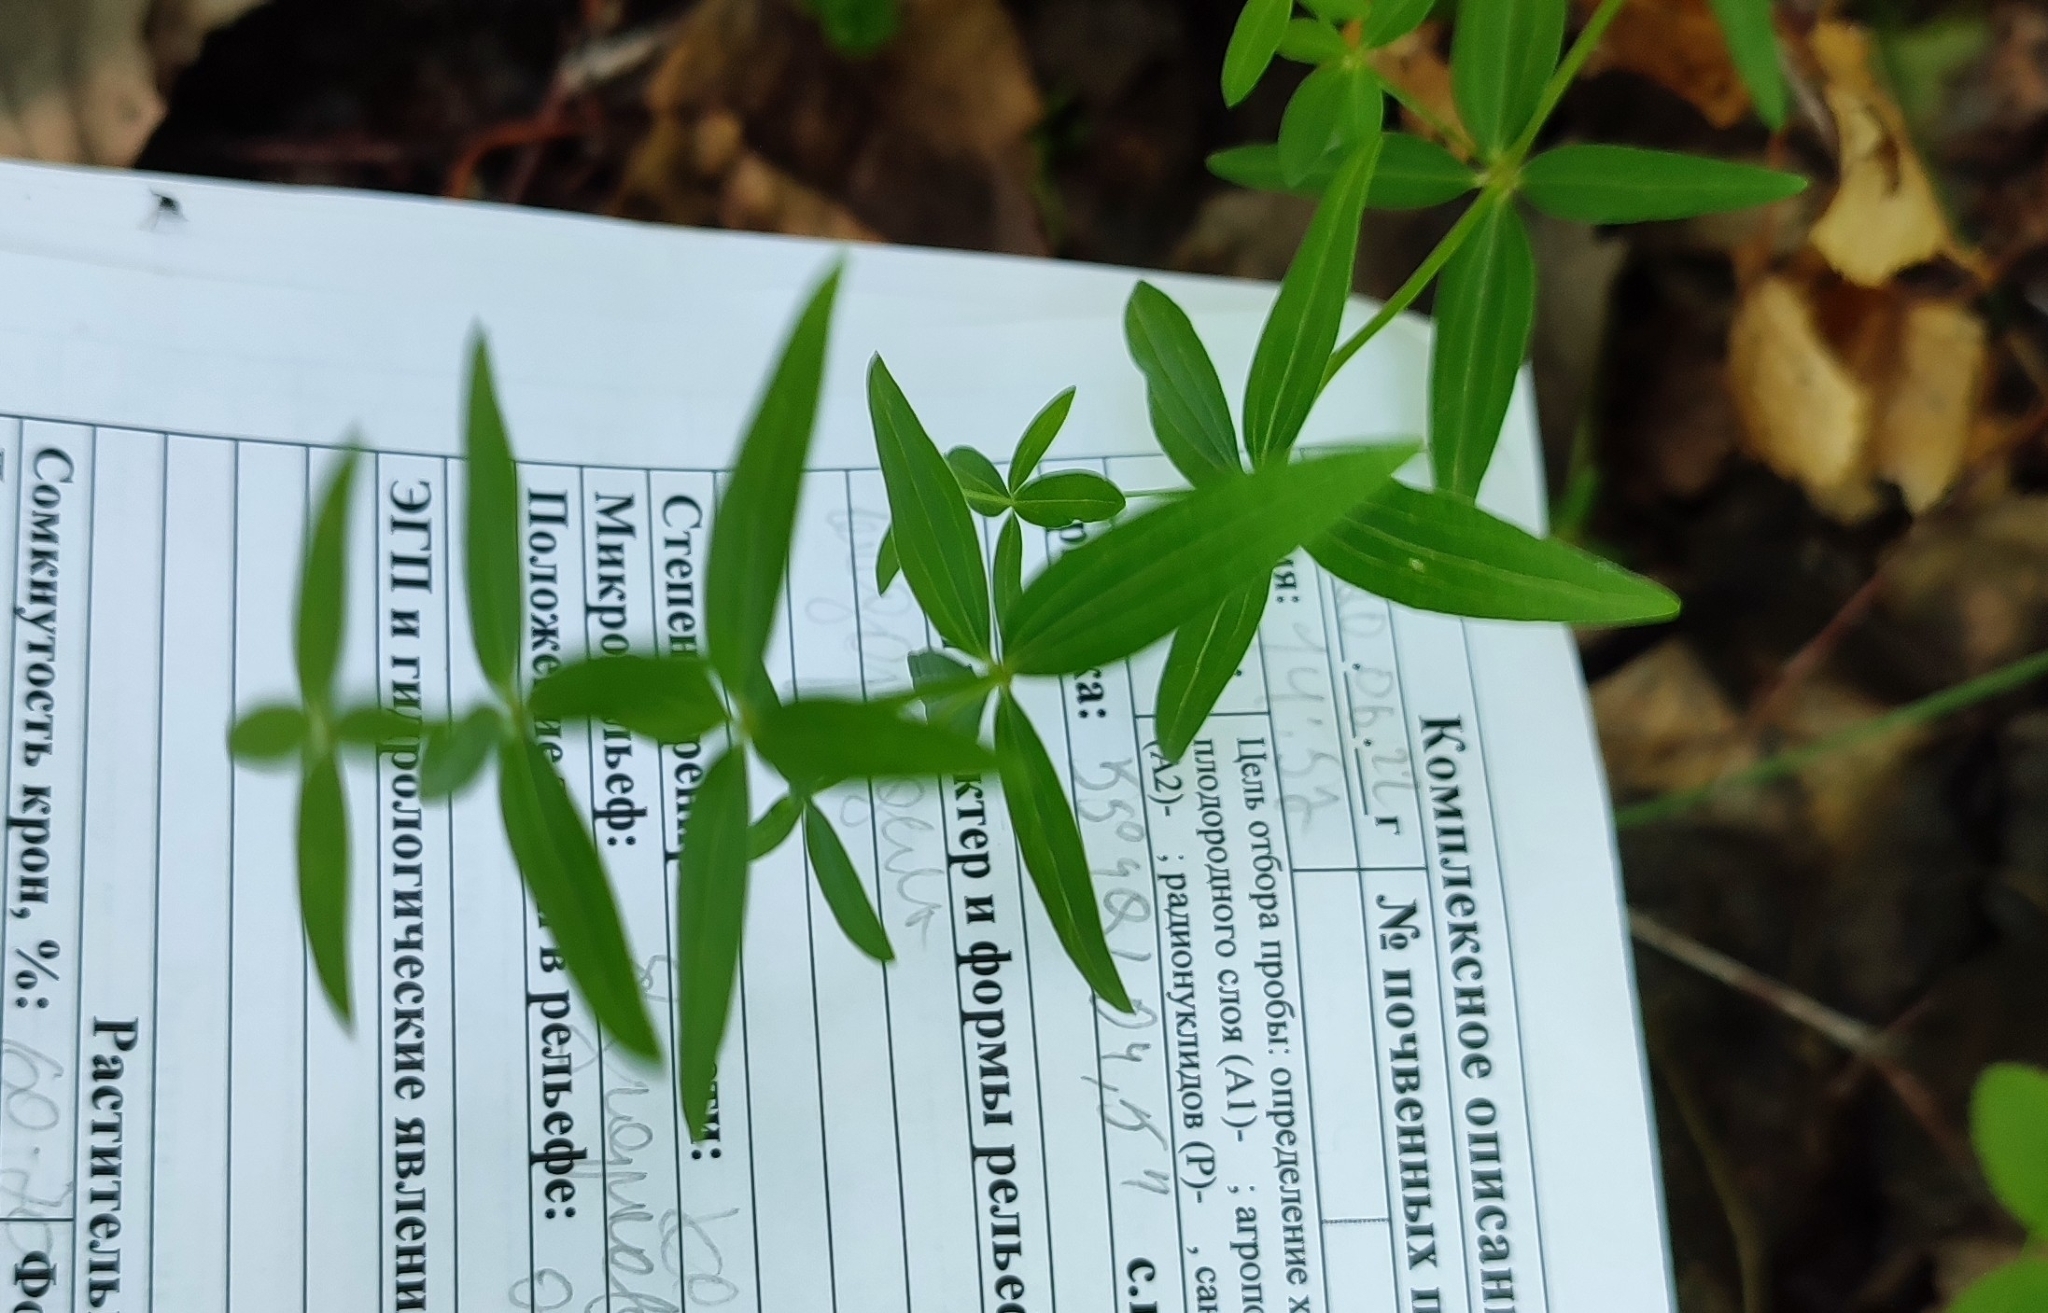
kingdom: Plantae
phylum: Tracheophyta
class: Magnoliopsida
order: Gentianales
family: Rubiaceae
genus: Galium
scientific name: Galium boreale
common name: Northern bedstraw
